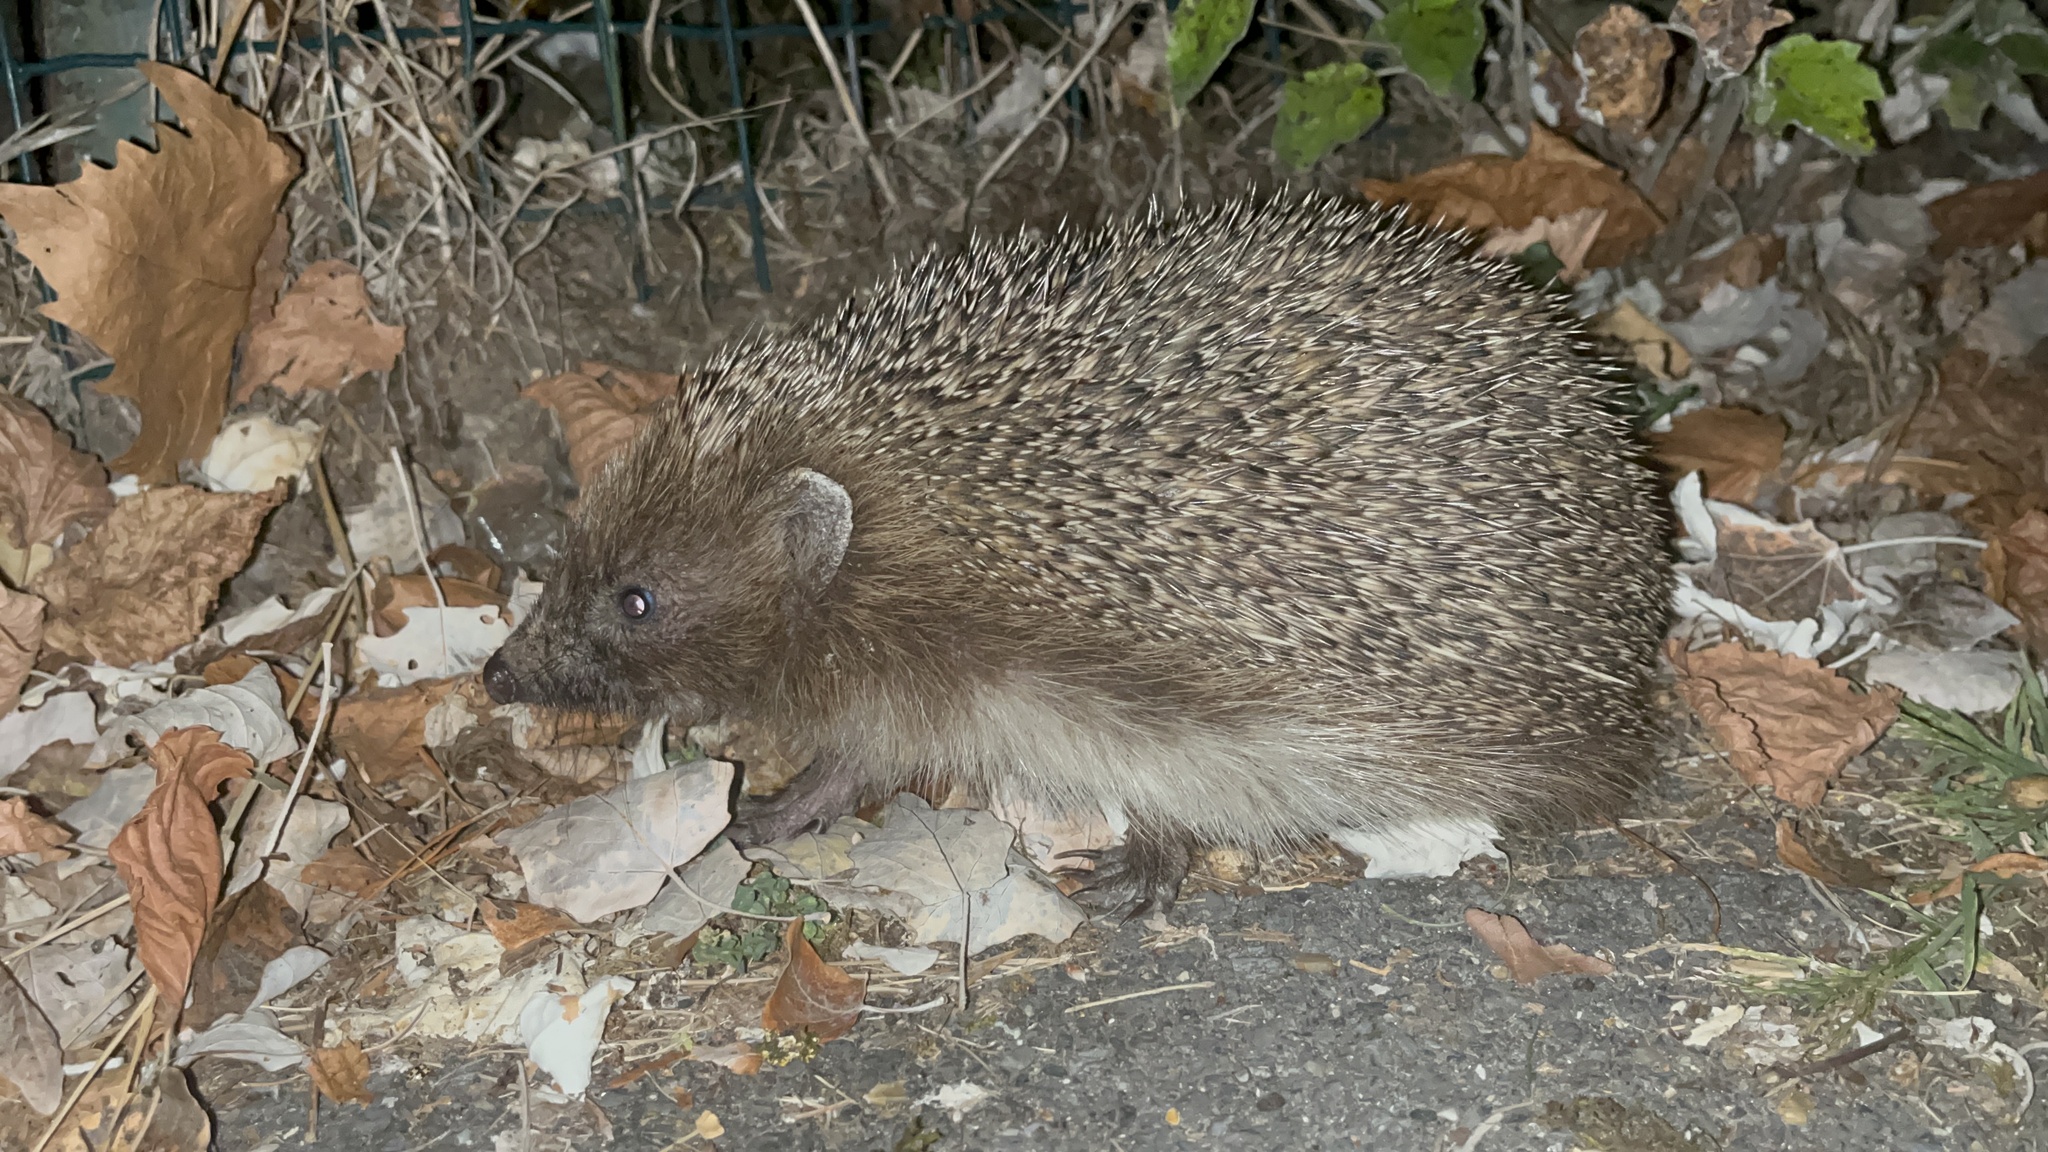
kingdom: Animalia
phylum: Chordata
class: Mammalia
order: Erinaceomorpha
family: Erinaceidae
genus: Erinaceus
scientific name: Erinaceus europaeus
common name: West european hedgehog
